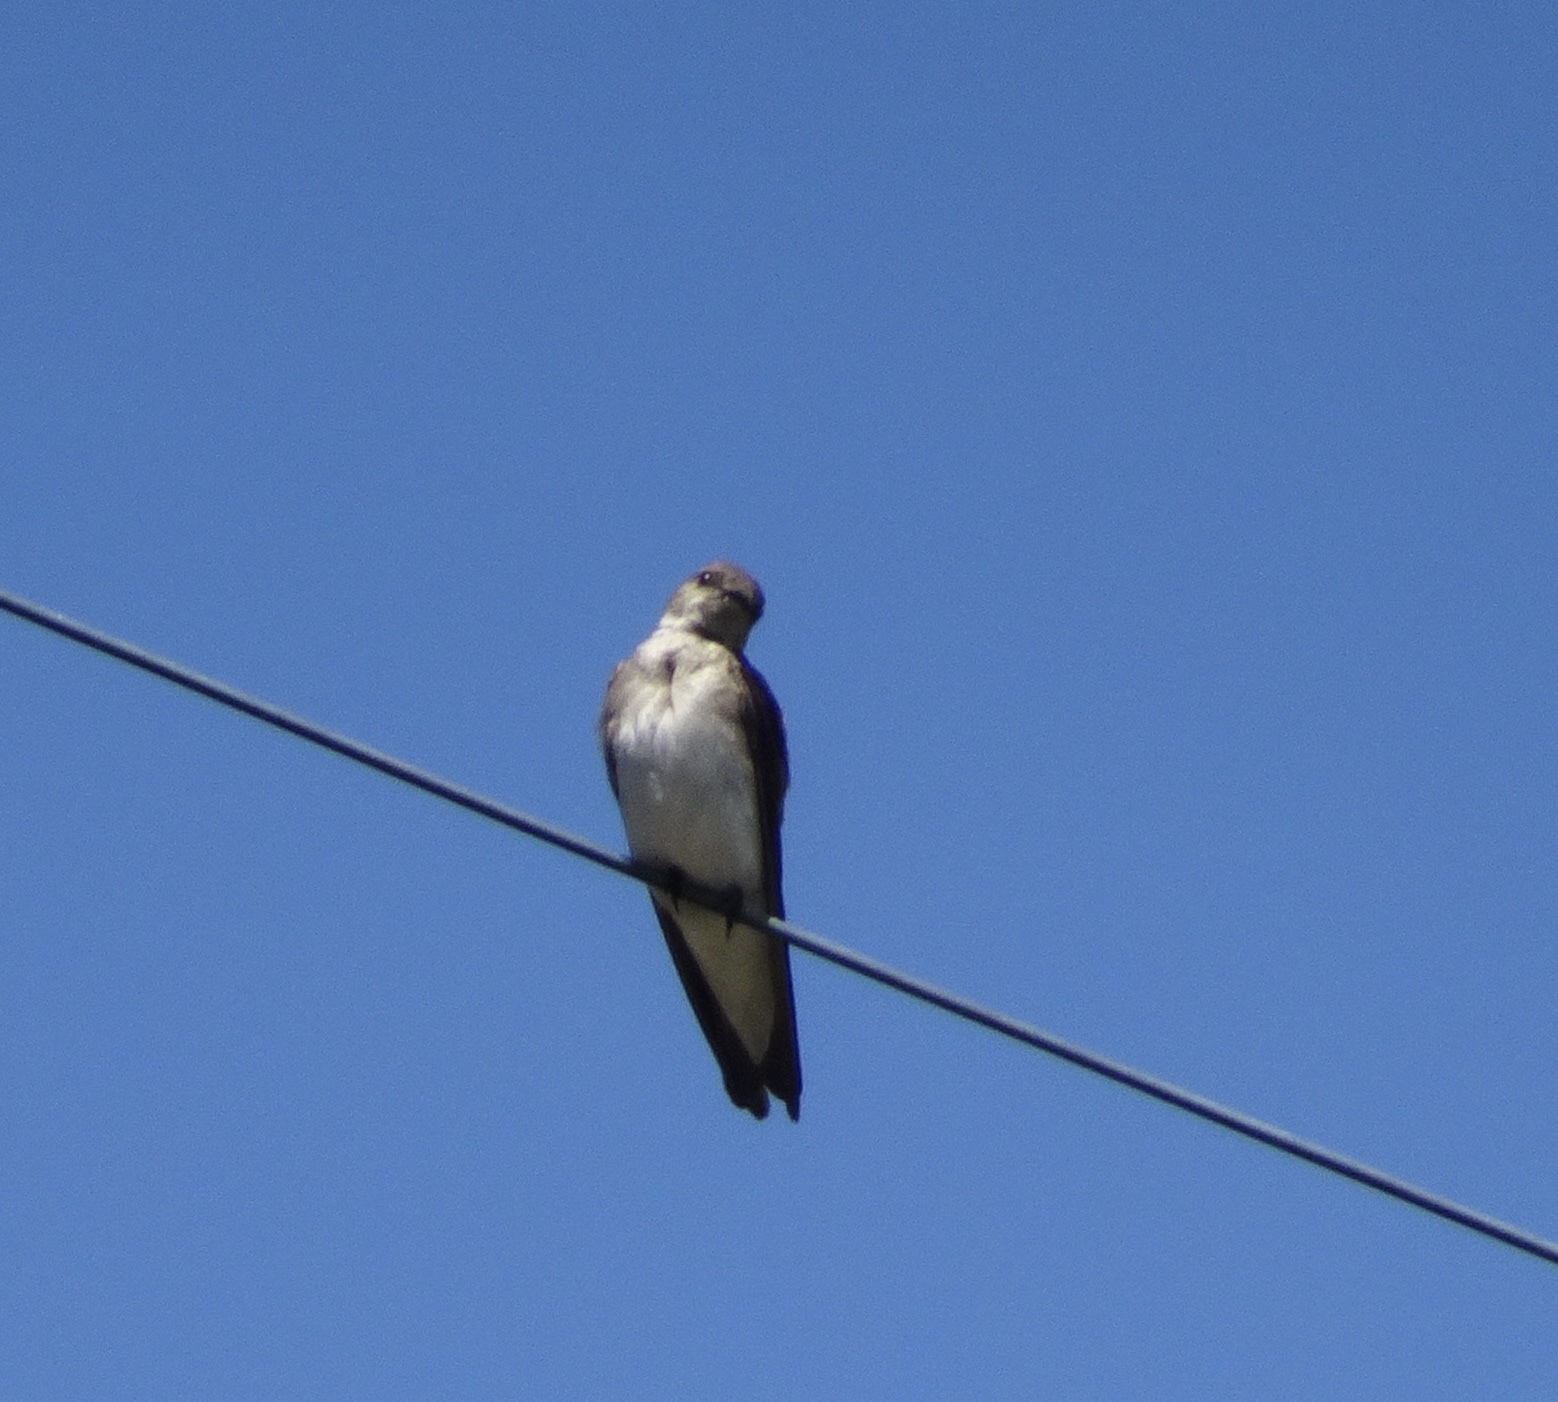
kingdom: Animalia
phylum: Chordata
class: Aves
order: Passeriformes
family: Hirundinidae
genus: Stelgidopteryx
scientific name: Stelgidopteryx serripennis
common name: Northern rough-winged swallow
